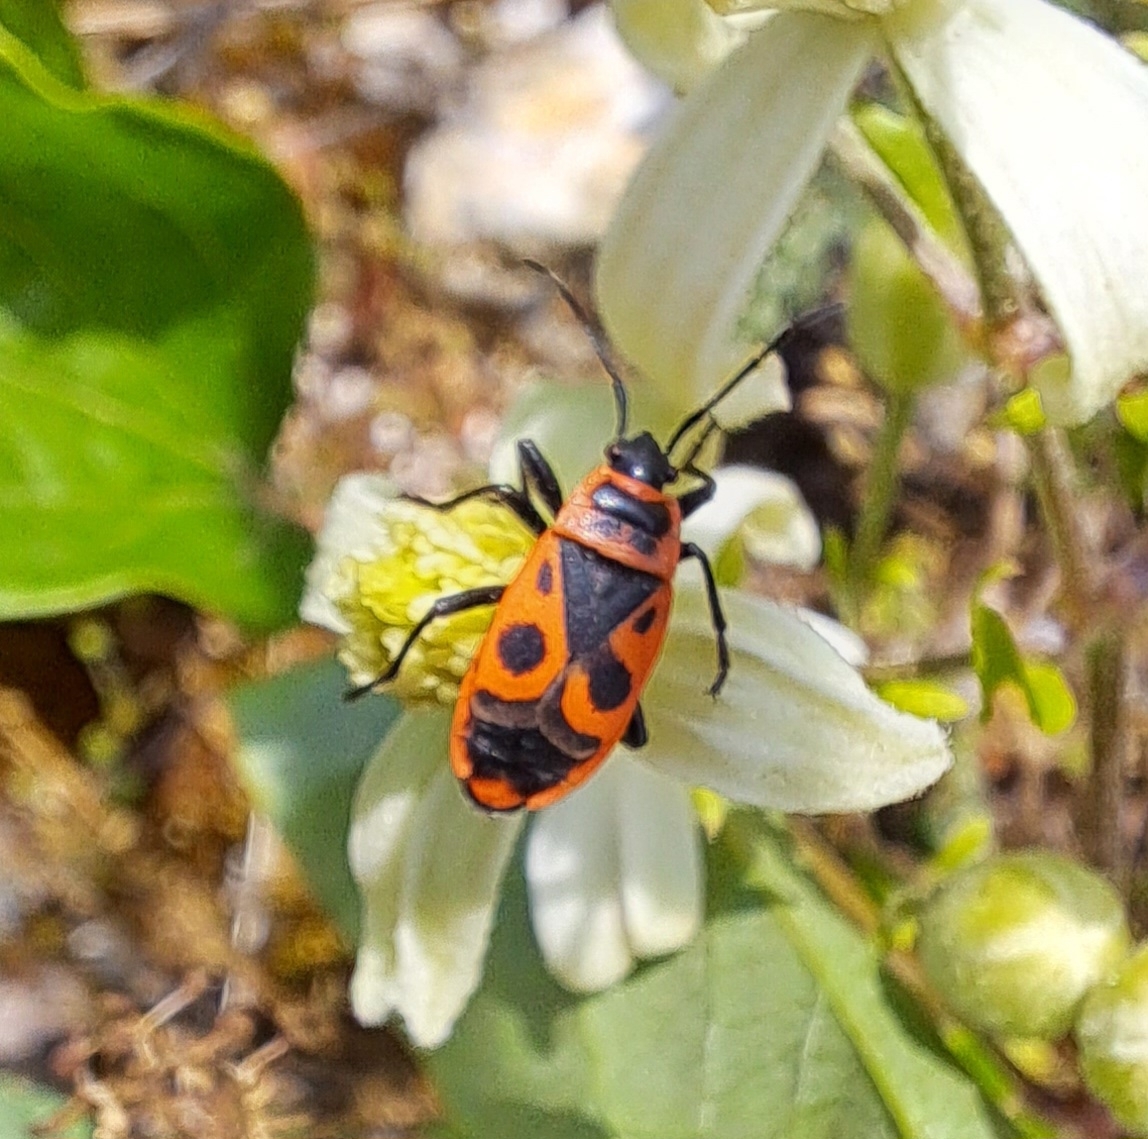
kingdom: Animalia
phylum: Arthropoda
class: Insecta
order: Hemiptera
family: Pyrrhocoridae
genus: Pyrrhocoris
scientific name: Pyrrhocoris apterus
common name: Firebug
